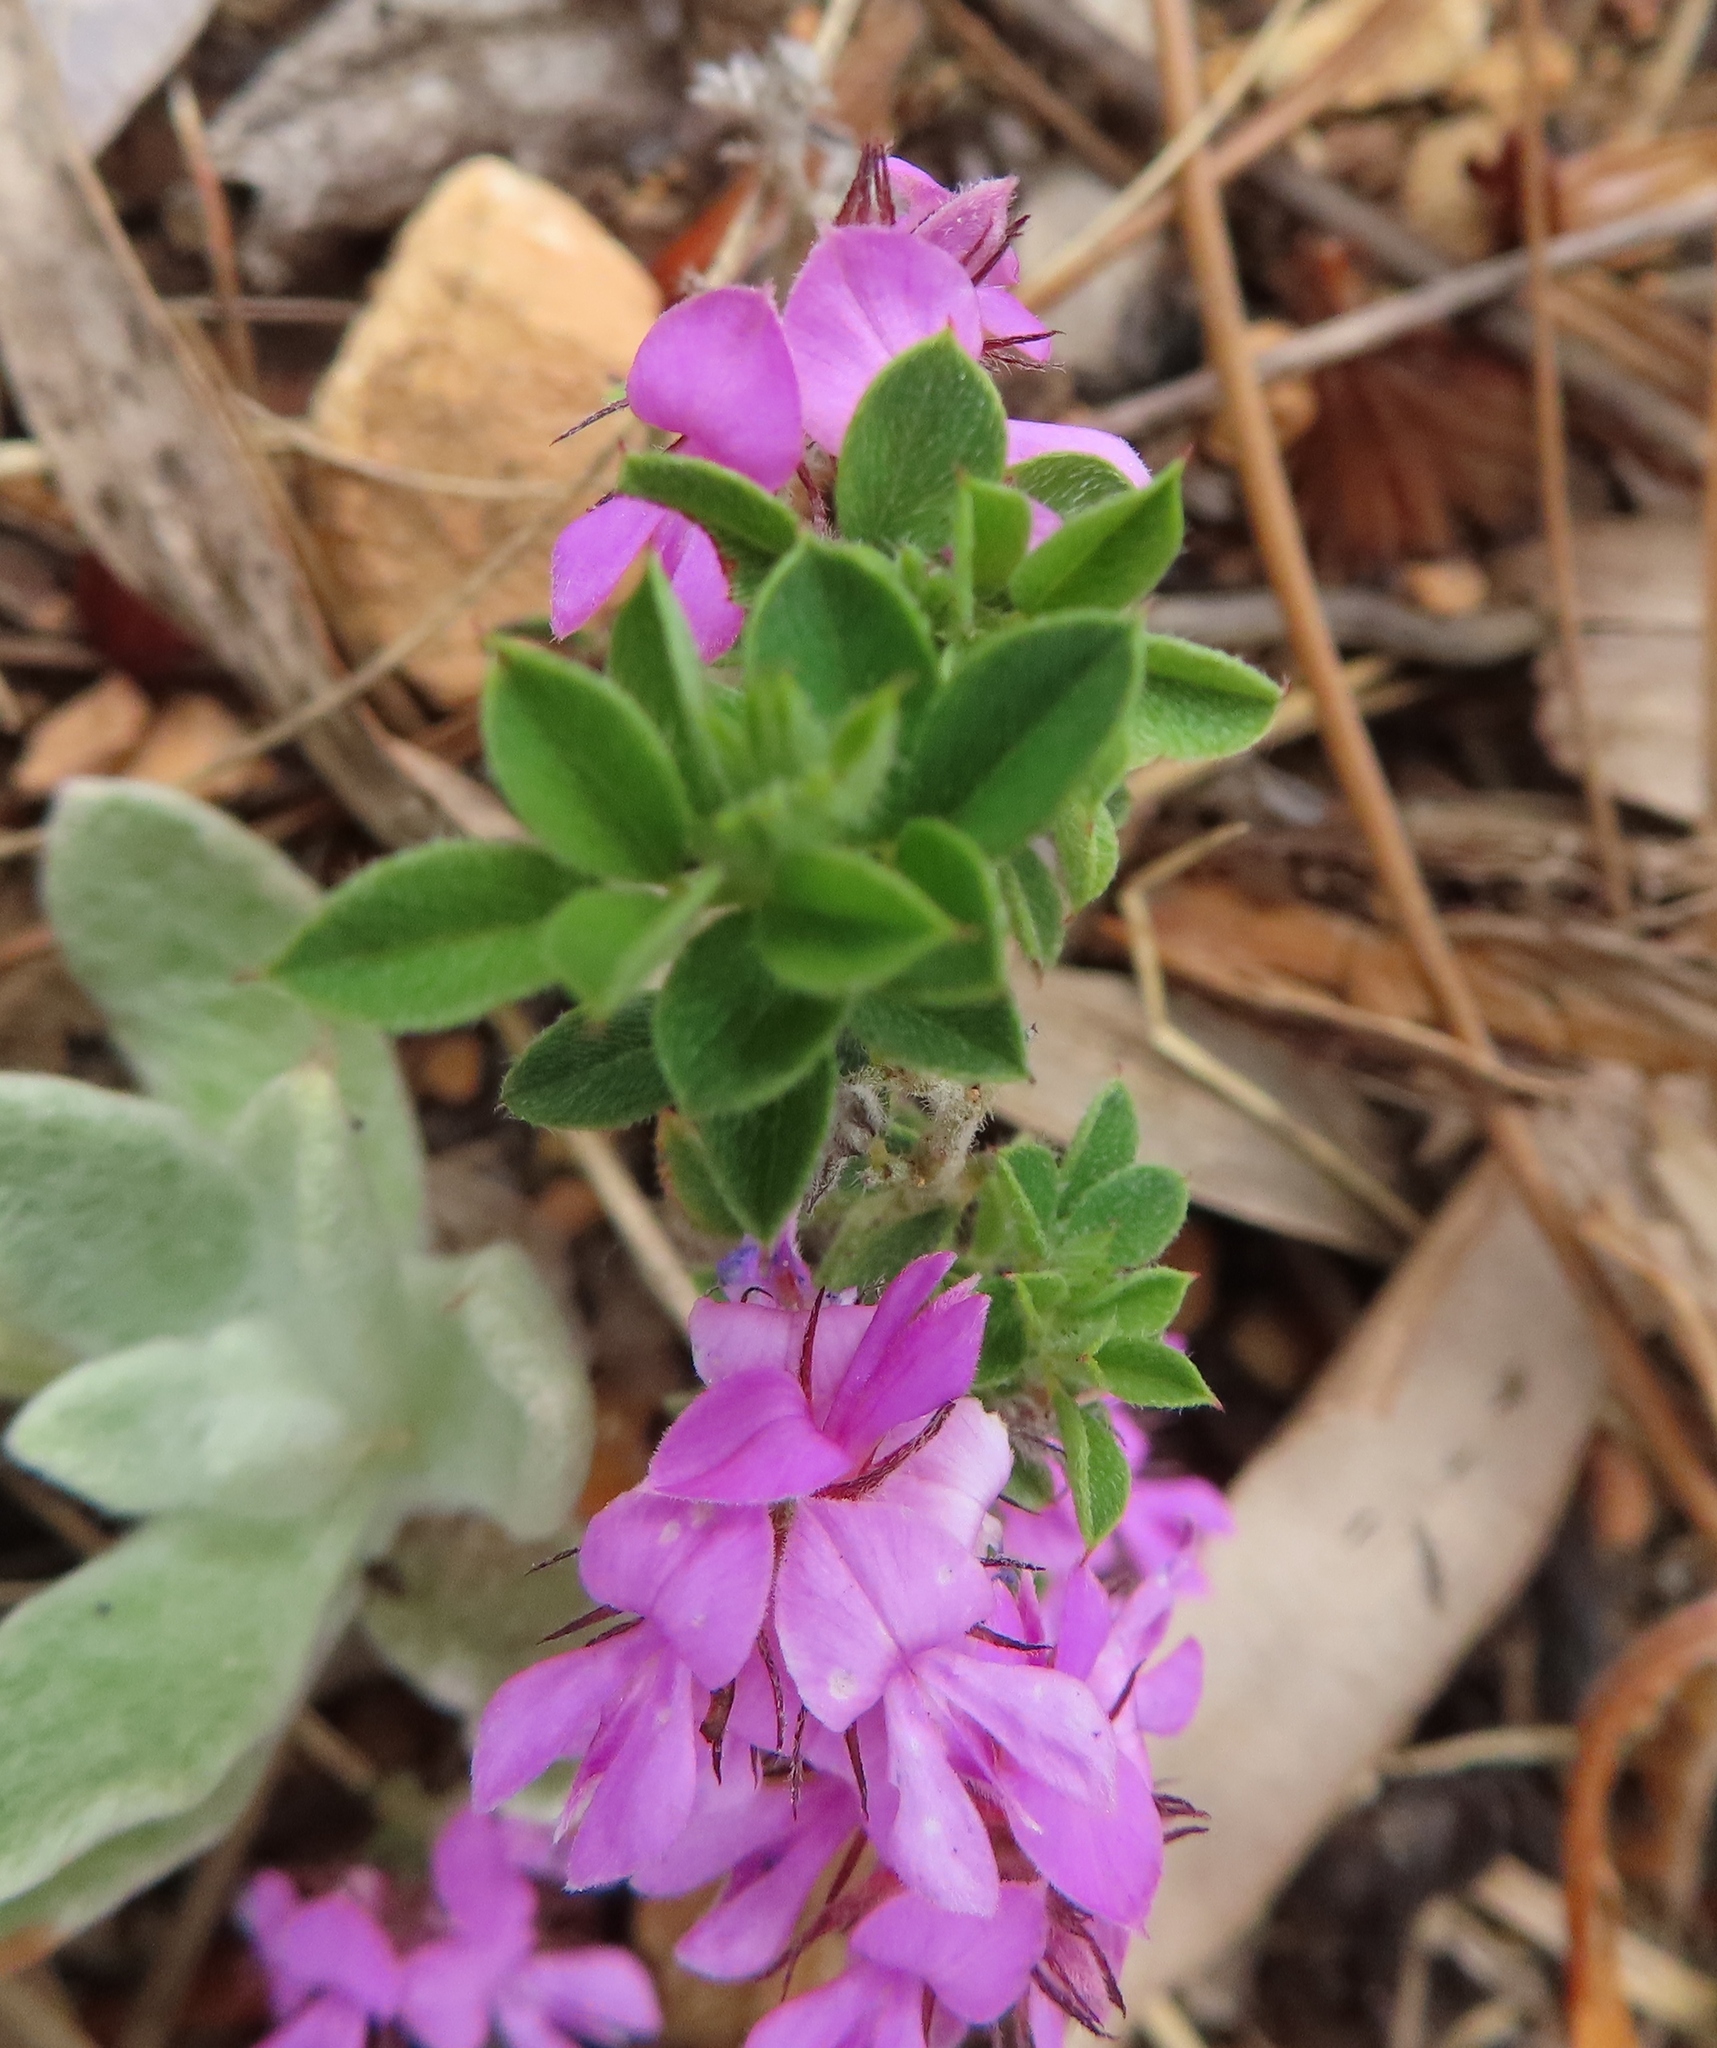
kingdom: Plantae
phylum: Tracheophyta
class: Magnoliopsida
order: Fabales
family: Fabaceae
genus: Indigofera
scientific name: Indigofera alopecuroides
